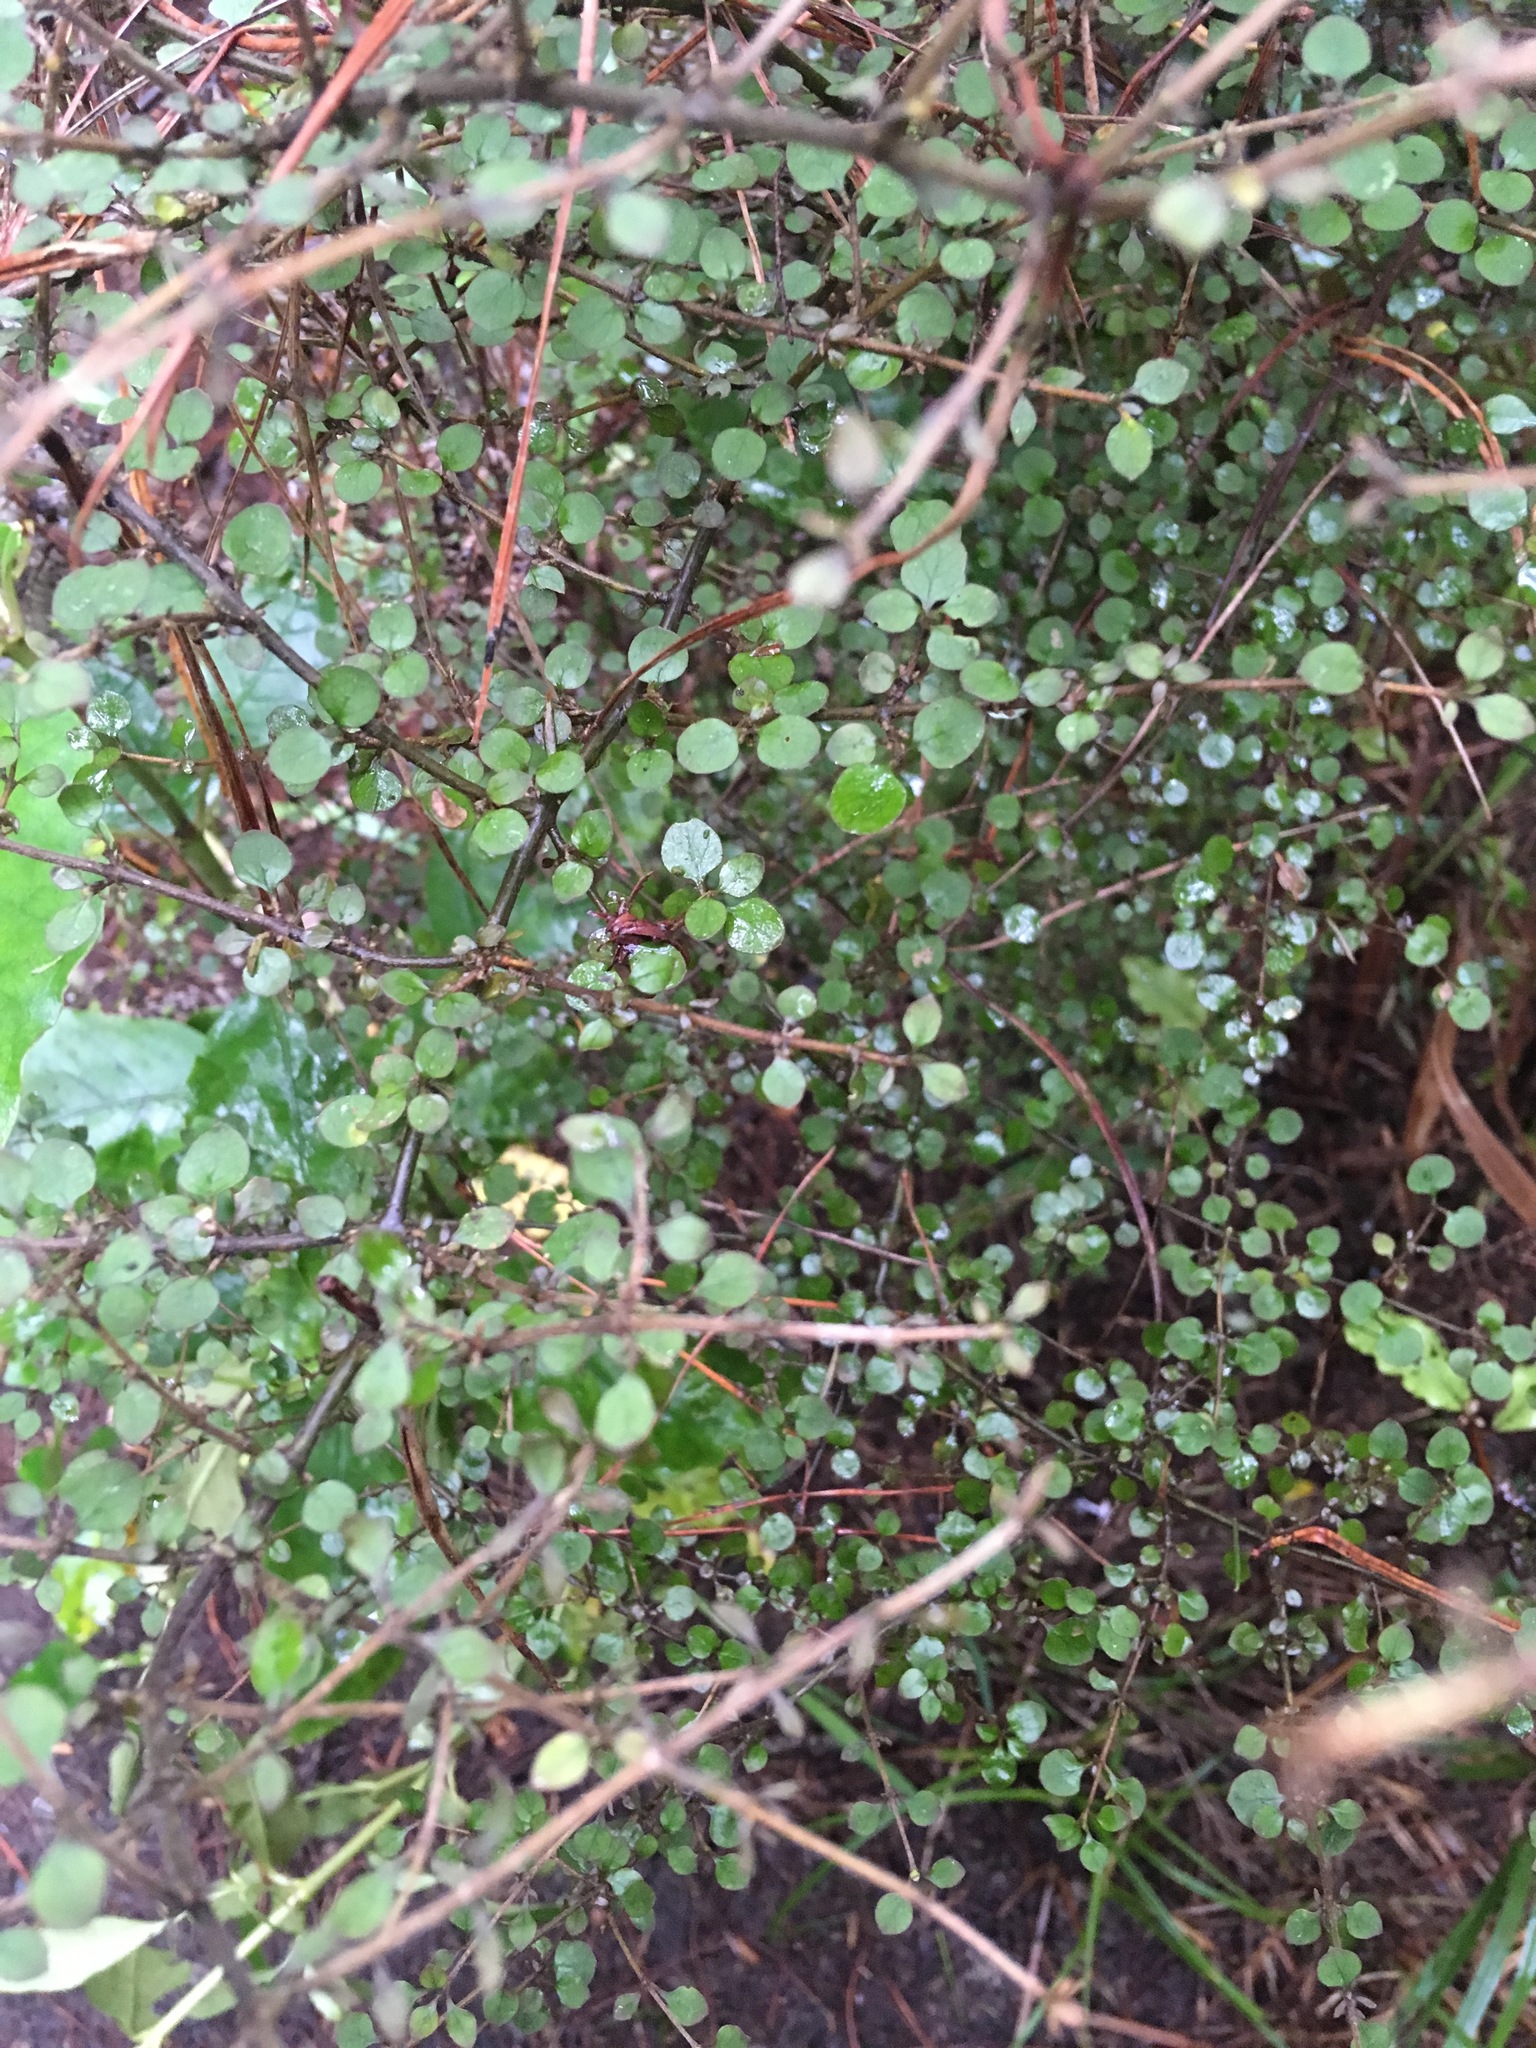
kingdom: Plantae
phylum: Tracheophyta
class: Magnoliopsida
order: Gentianales
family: Rubiaceae
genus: Coprosma
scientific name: Coprosma rhamnoides
